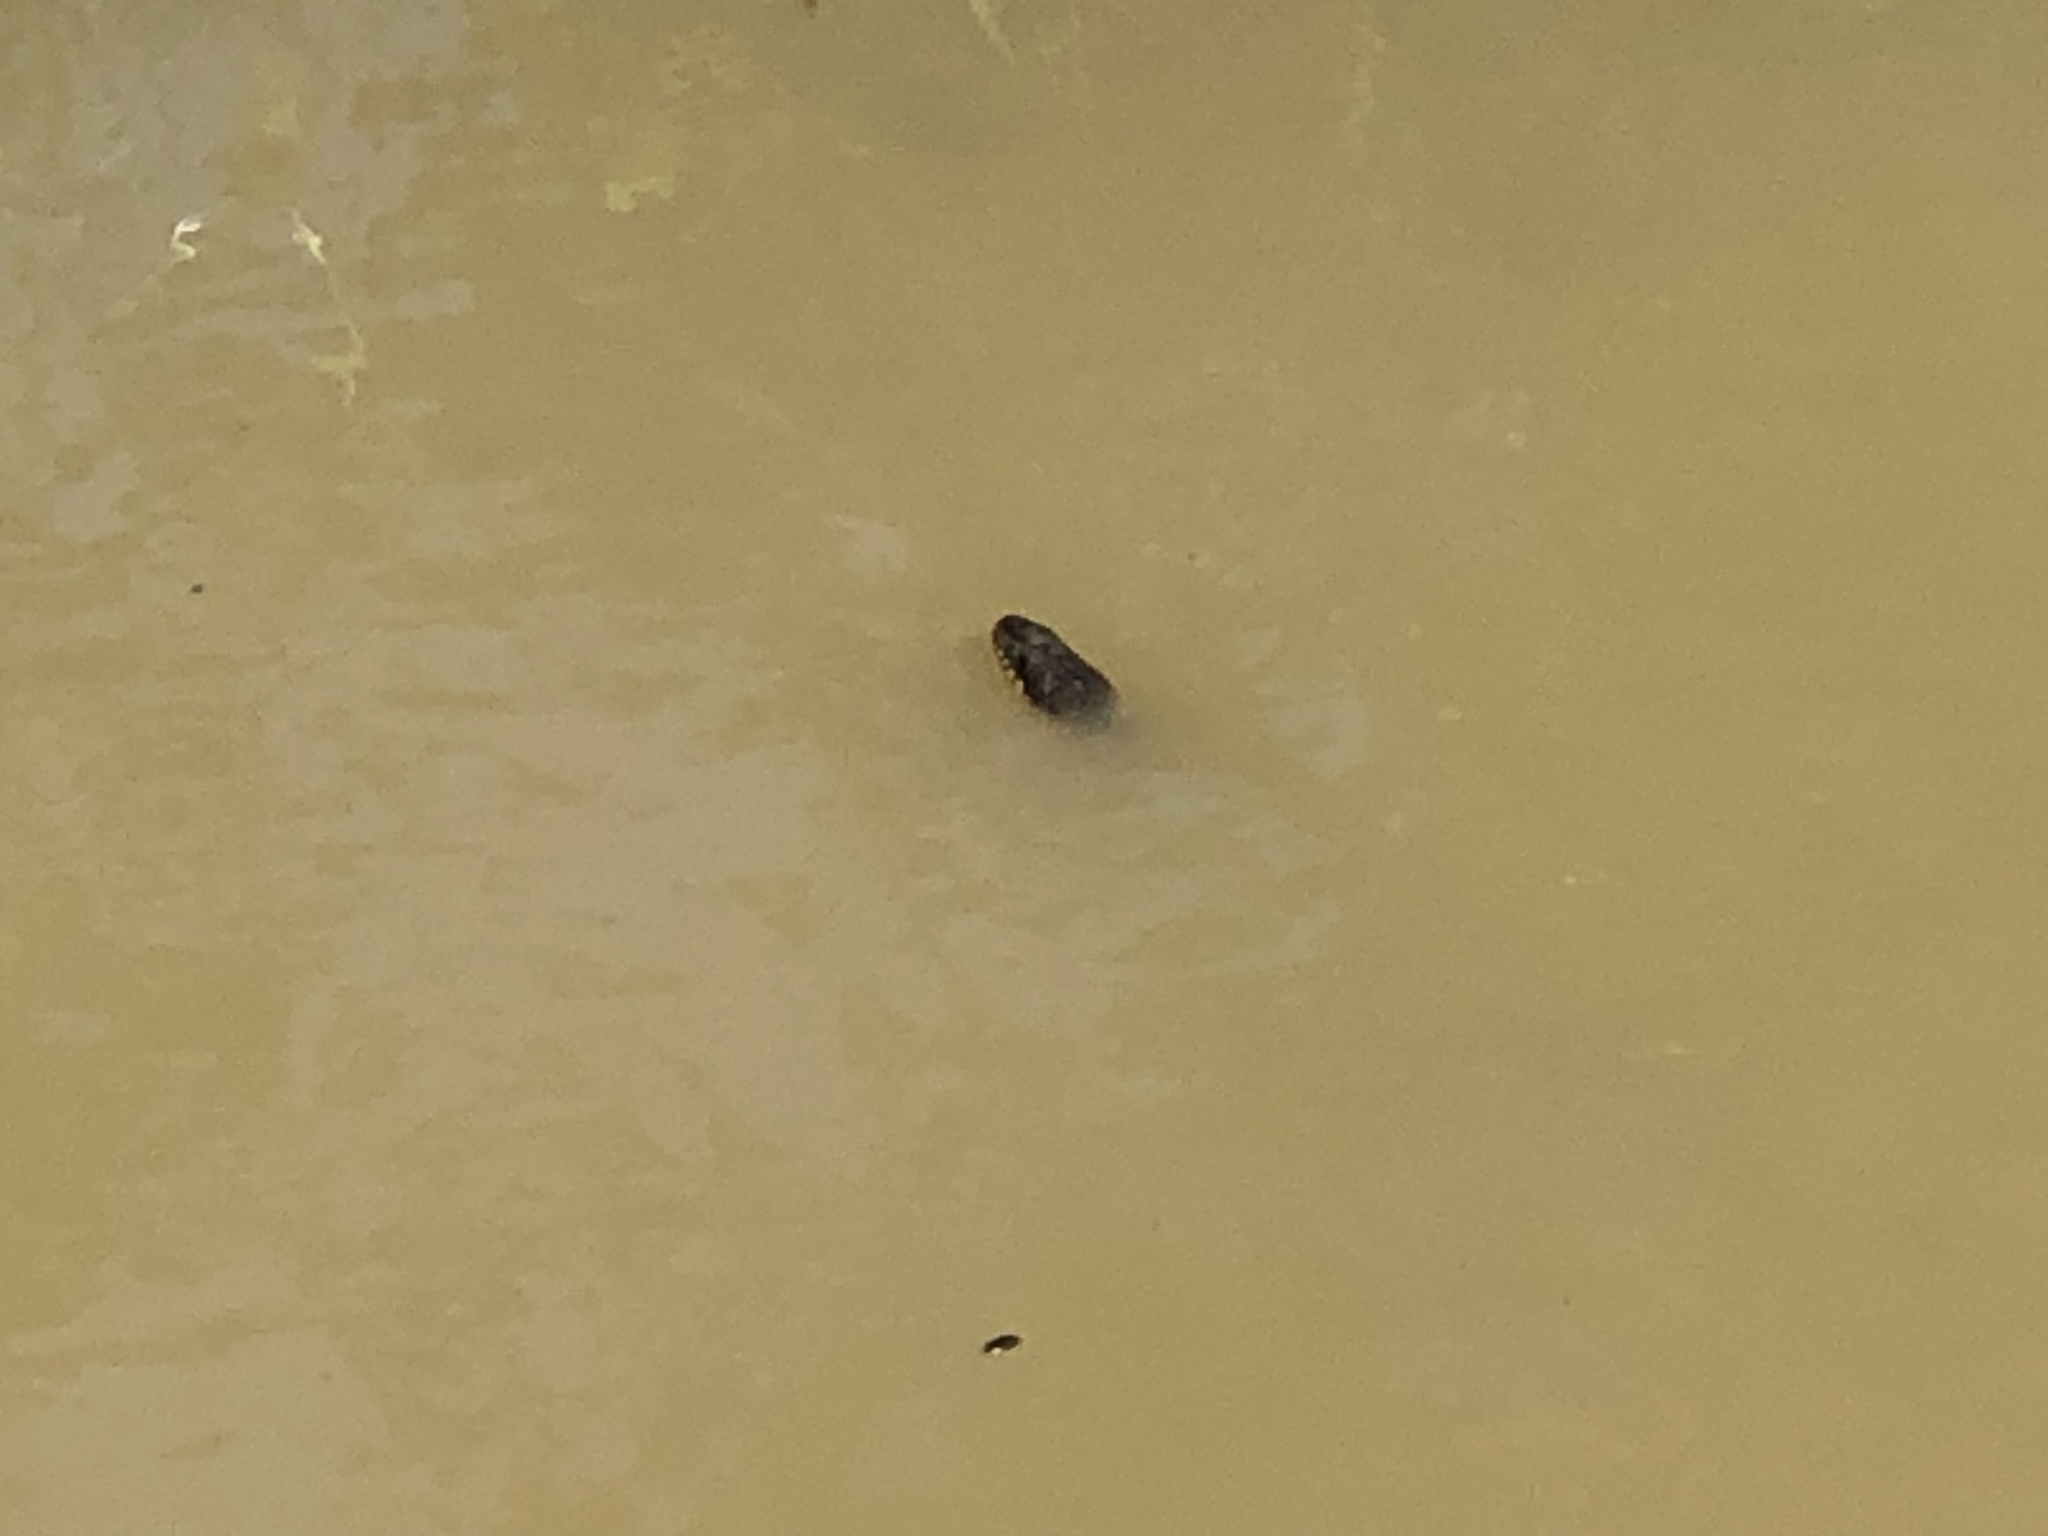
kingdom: Animalia
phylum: Chordata
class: Squamata
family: Colubridae
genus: Nerodia
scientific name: Nerodia erythrogaster
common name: Plainbelly water snake
